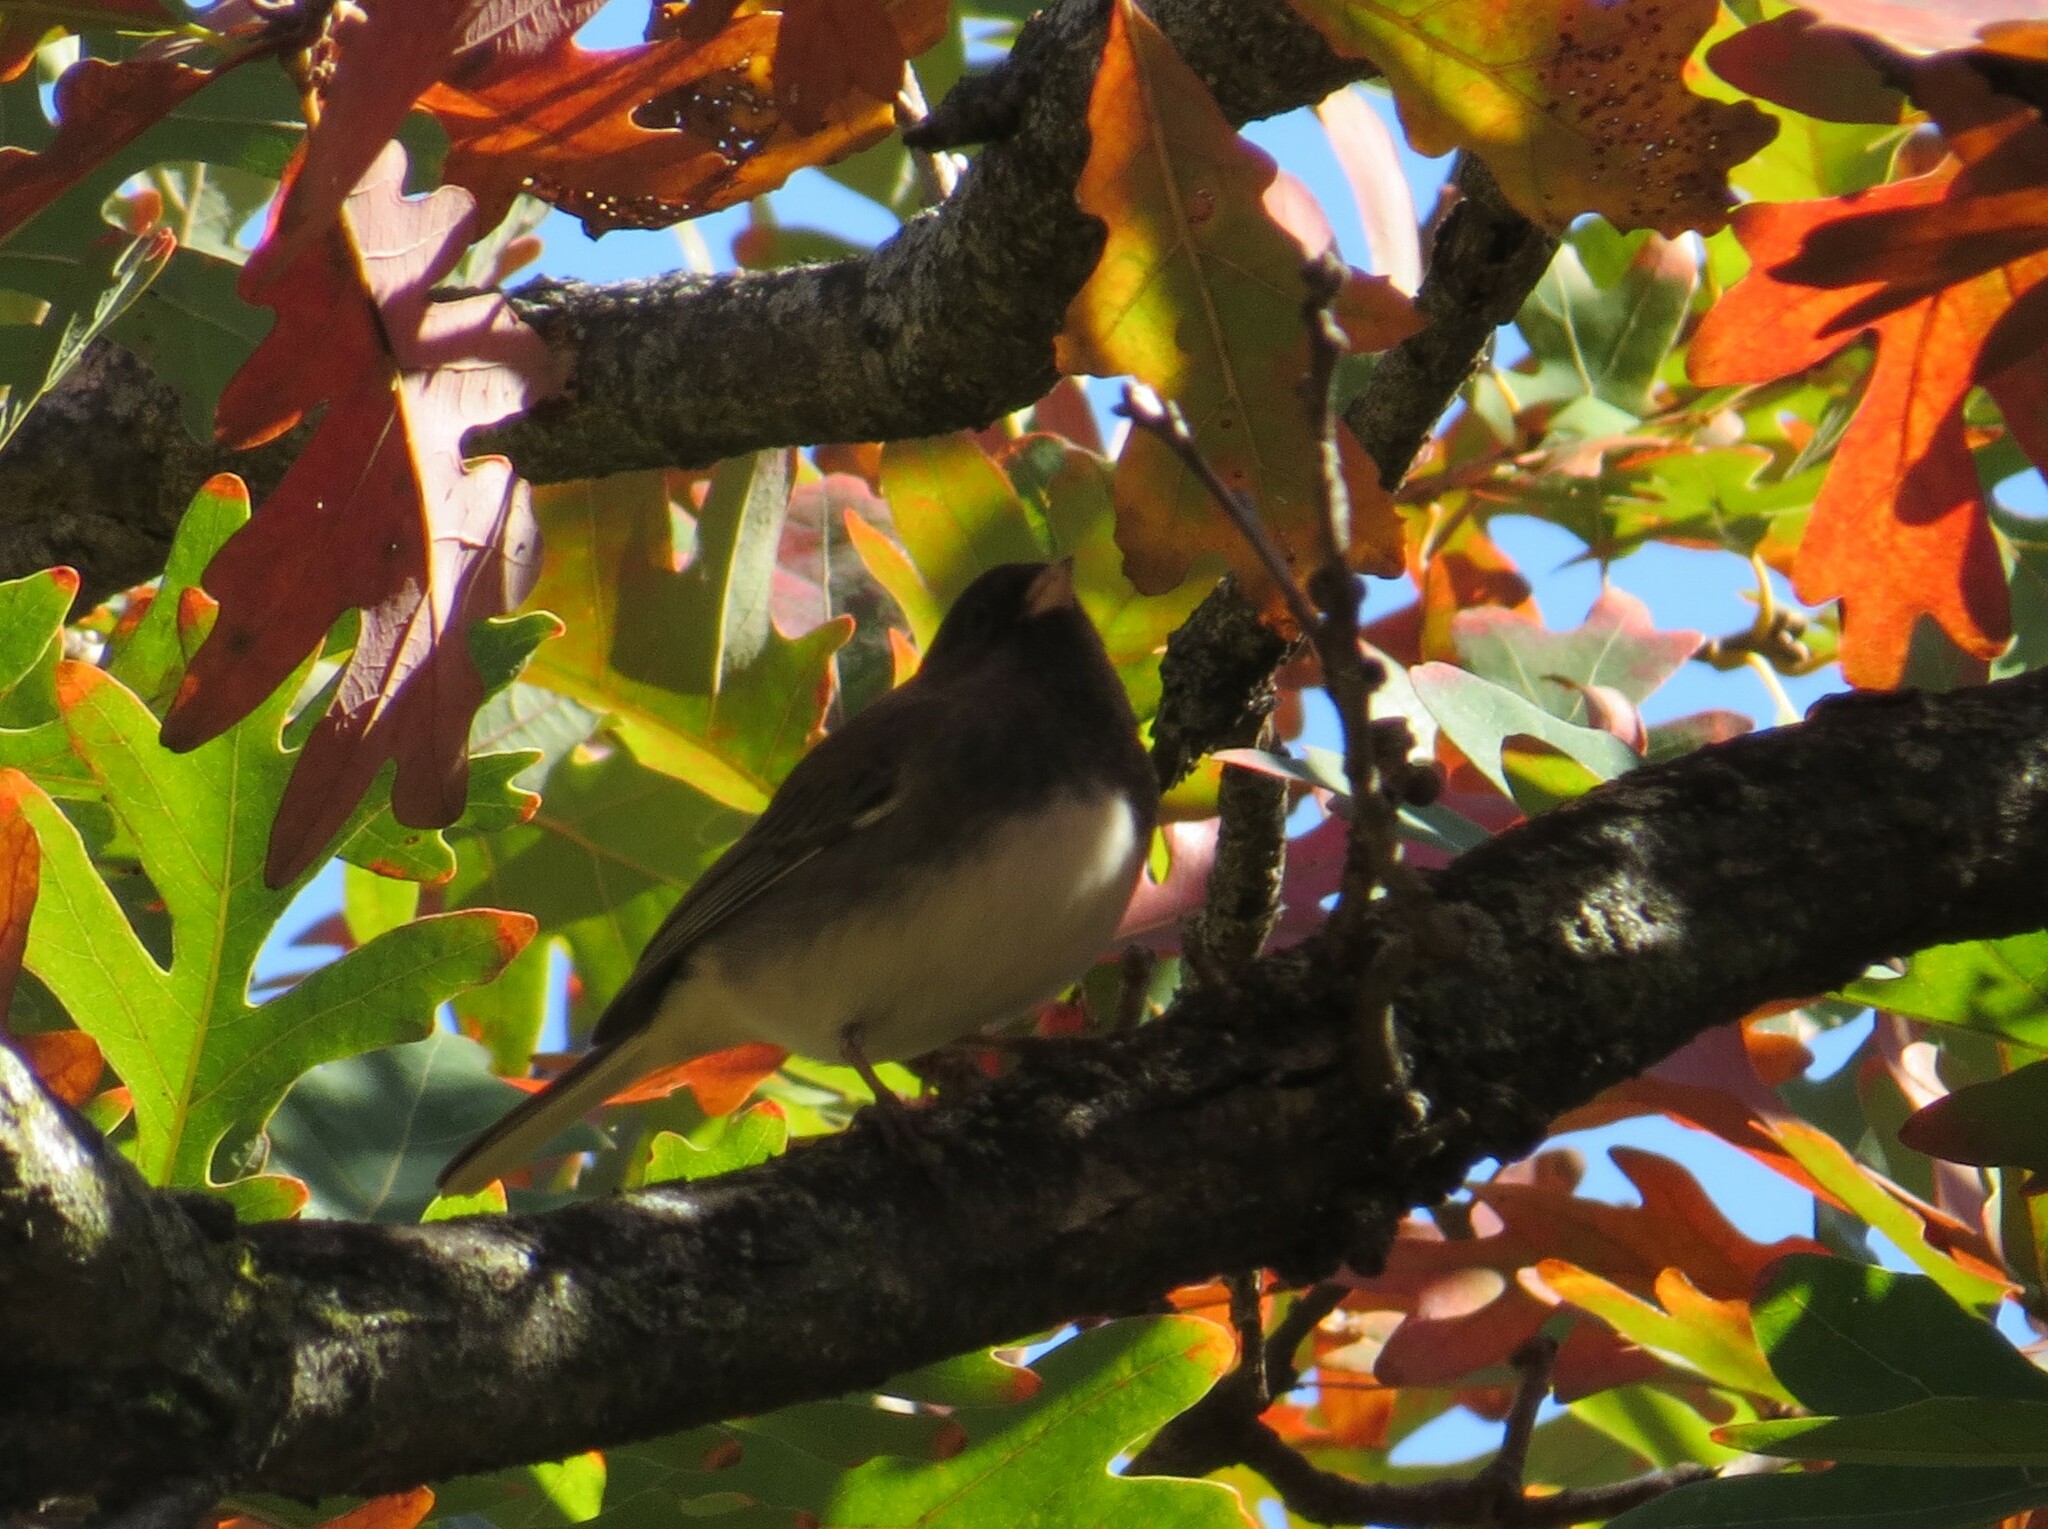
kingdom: Animalia
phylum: Chordata
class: Aves
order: Passeriformes
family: Passerellidae
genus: Junco
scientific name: Junco hyemalis
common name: Dark-eyed junco
